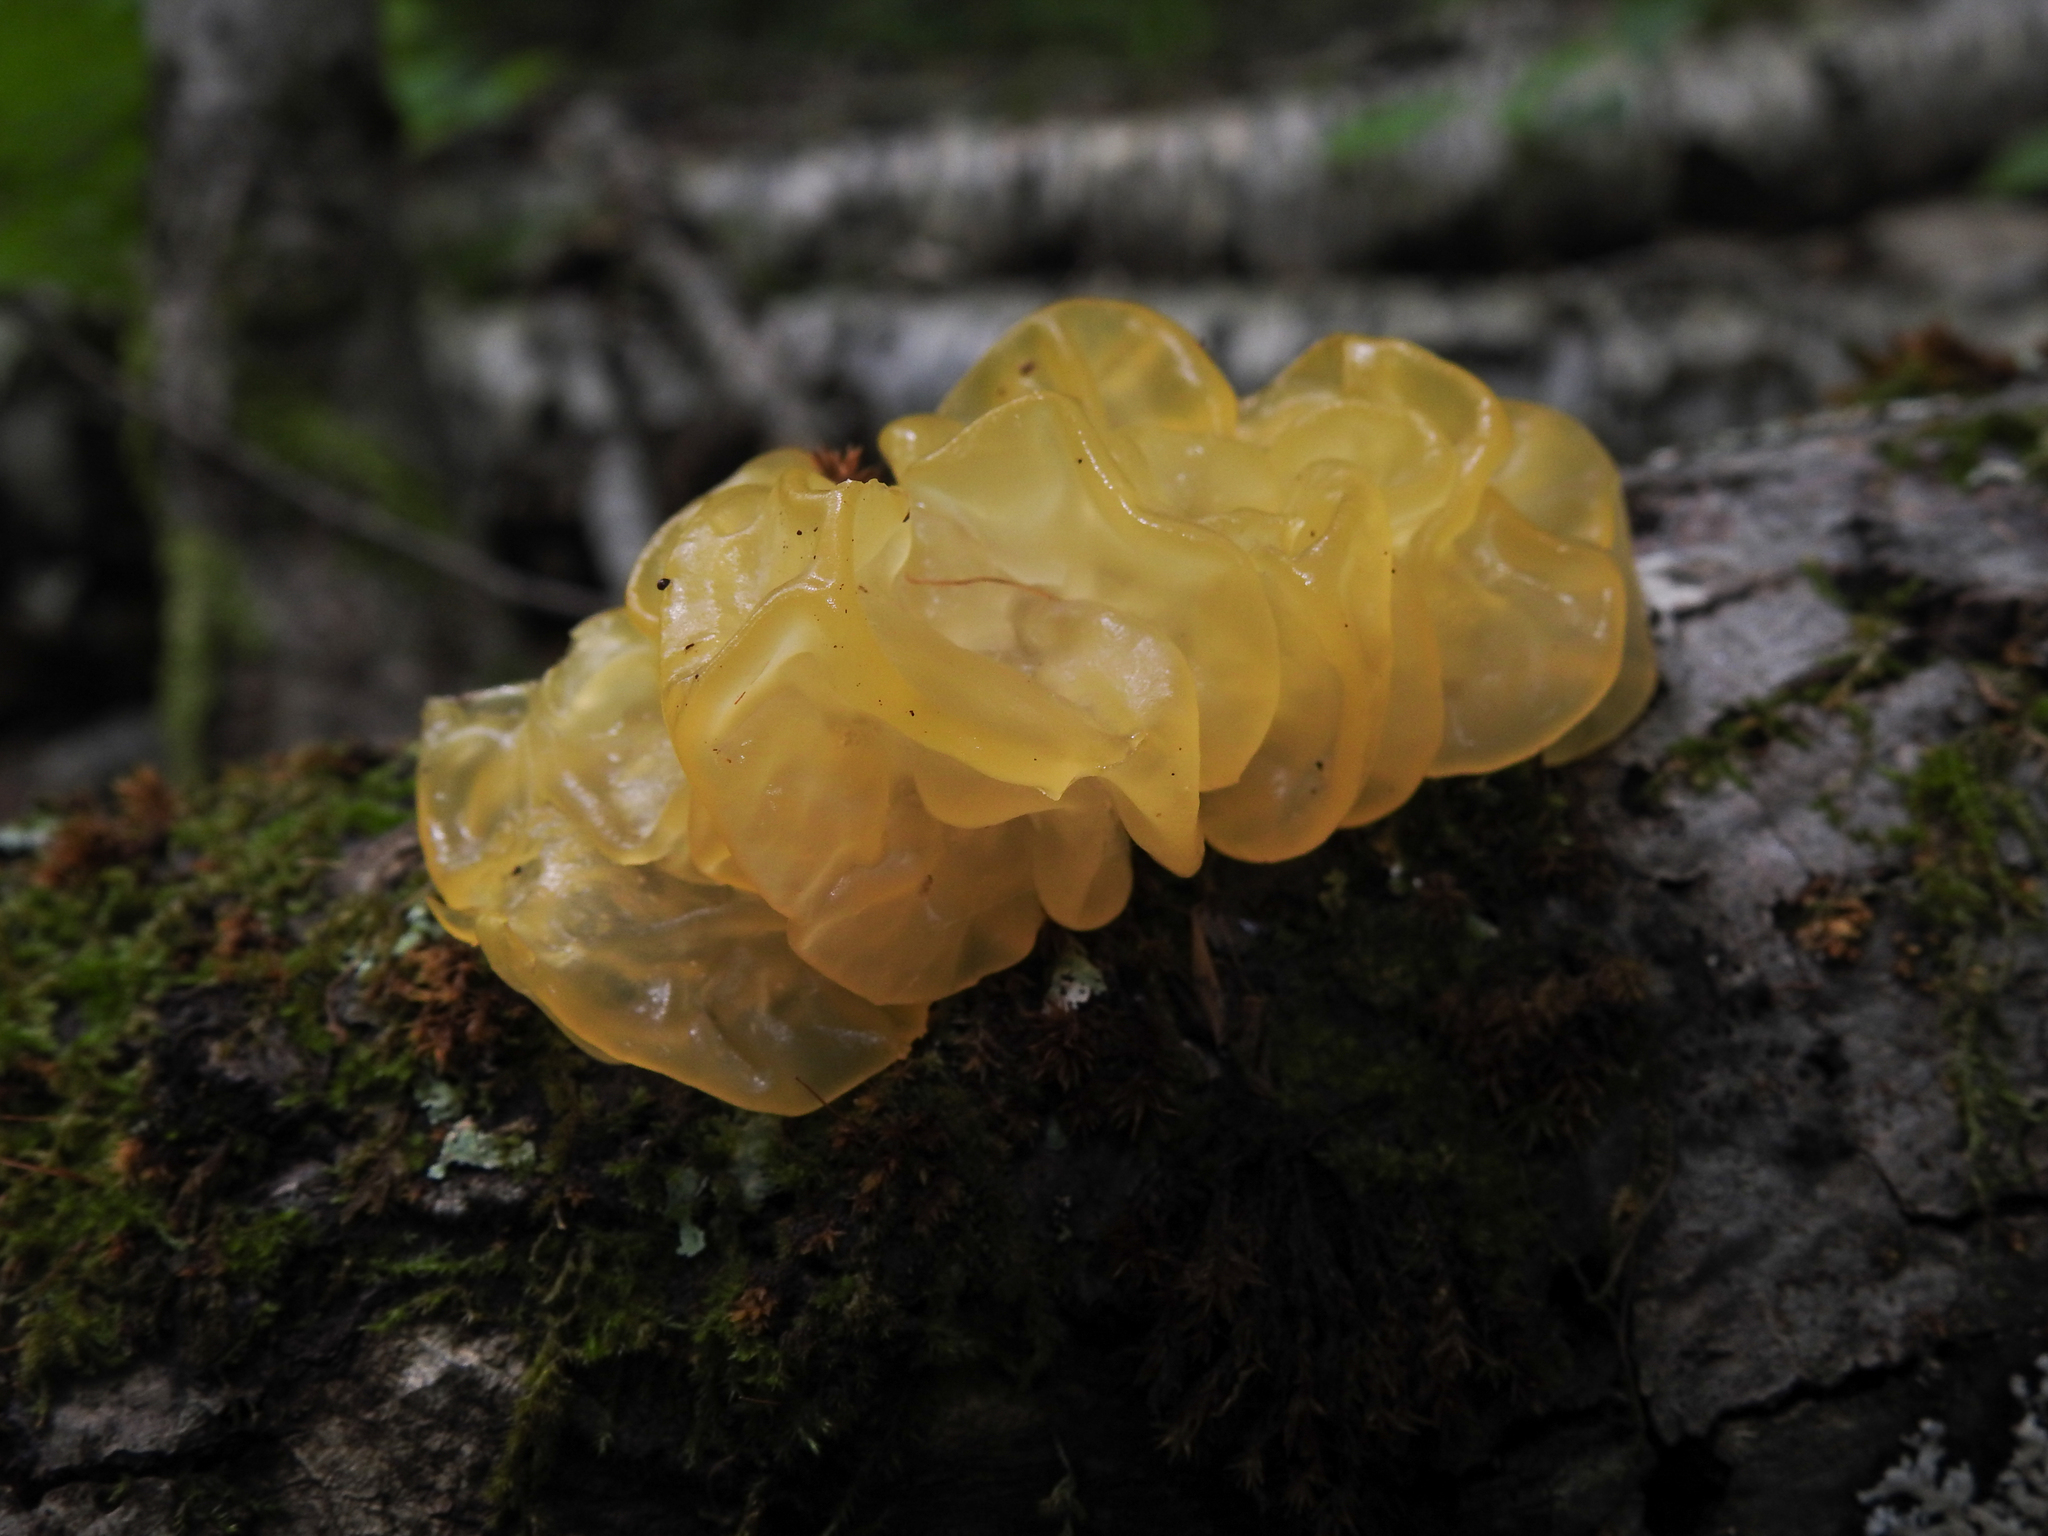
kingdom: Fungi
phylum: Basidiomycota
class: Tremellomycetes
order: Tremellales
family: Tremellaceae
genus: Tremella
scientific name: Tremella mesenterica
